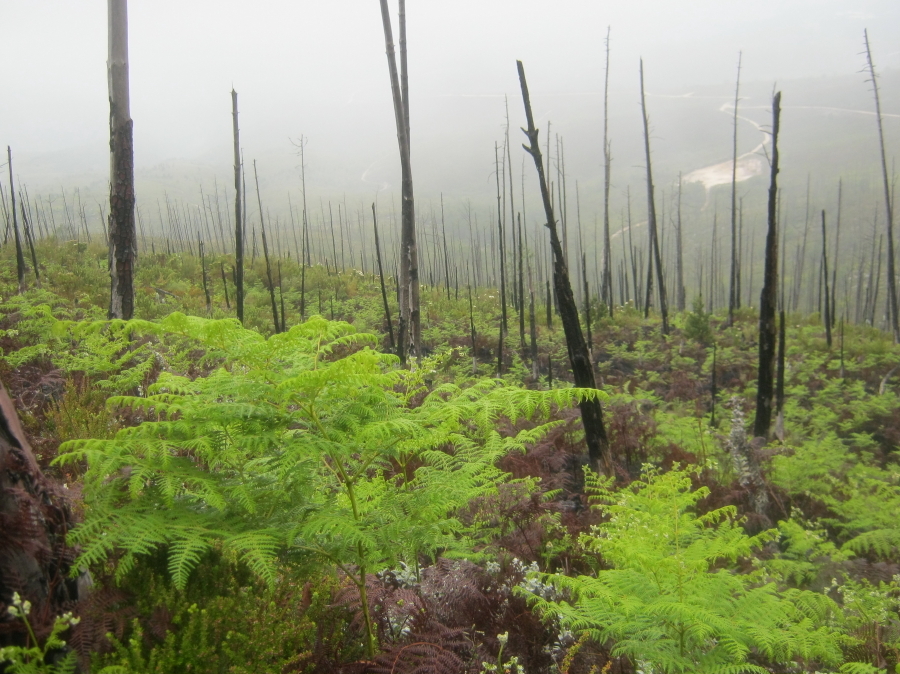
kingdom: Plantae
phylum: Tracheophyta
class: Polypodiopsida
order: Polypodiales
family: Dennstaedtiaceae
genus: Pteridium
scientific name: Pteridium aquilinum
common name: Bracken
